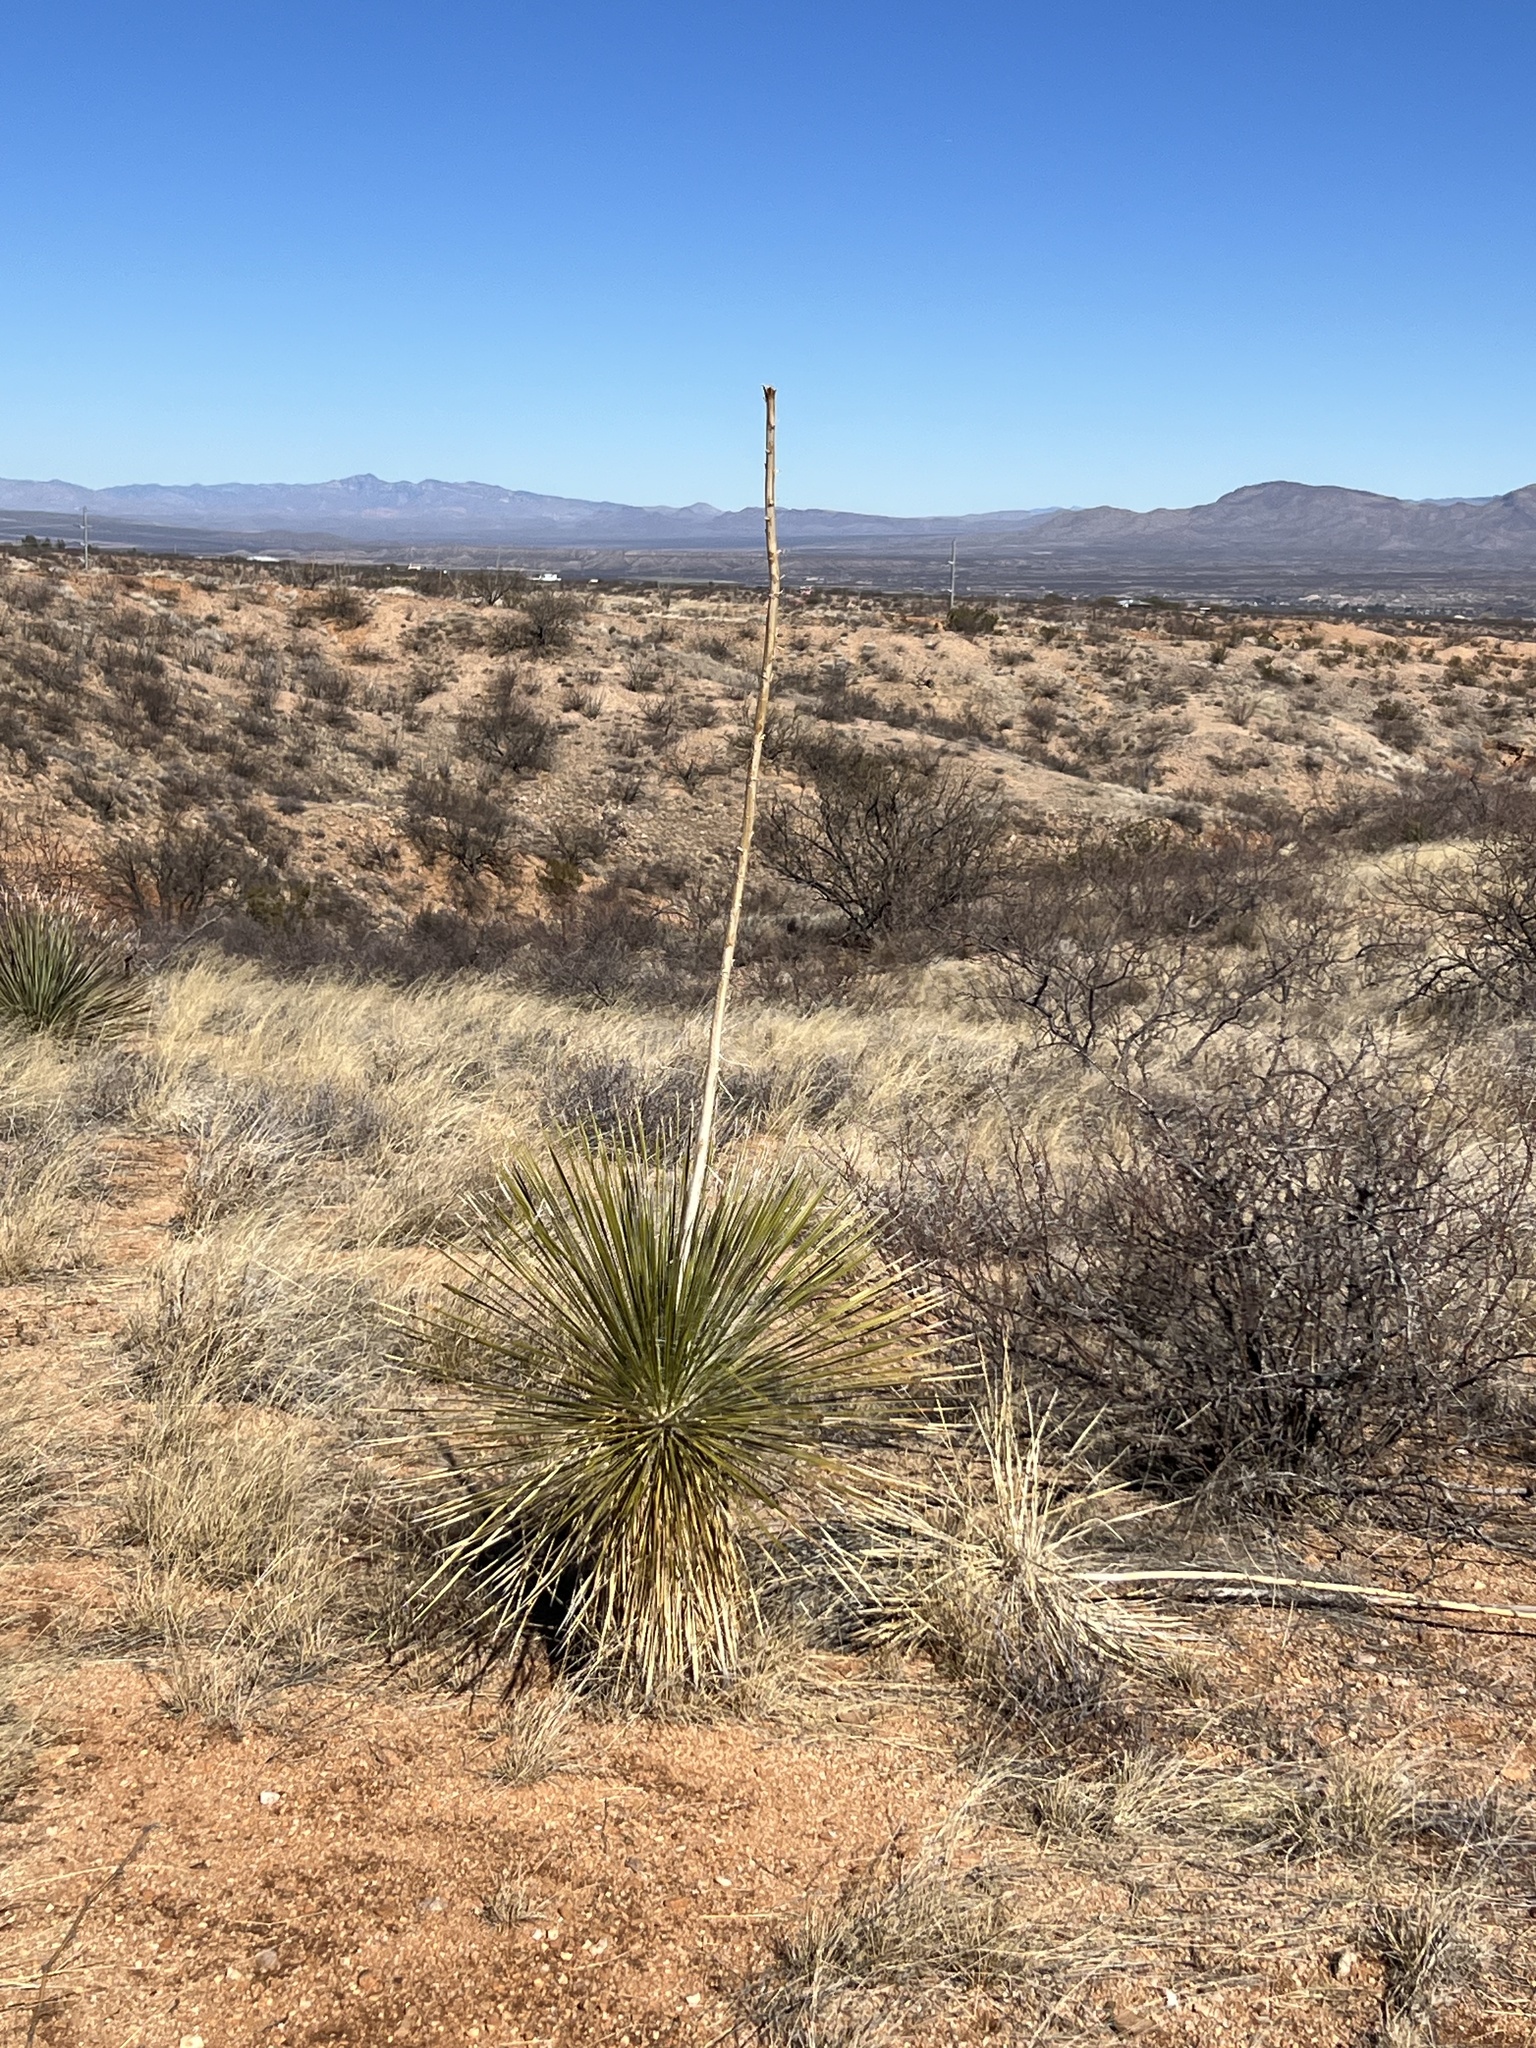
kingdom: Plantae
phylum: Tracheophyta
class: Liliopsida
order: Asparagales
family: Asparagaceae
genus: Yucca
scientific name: Yucca elata
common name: Palmella
